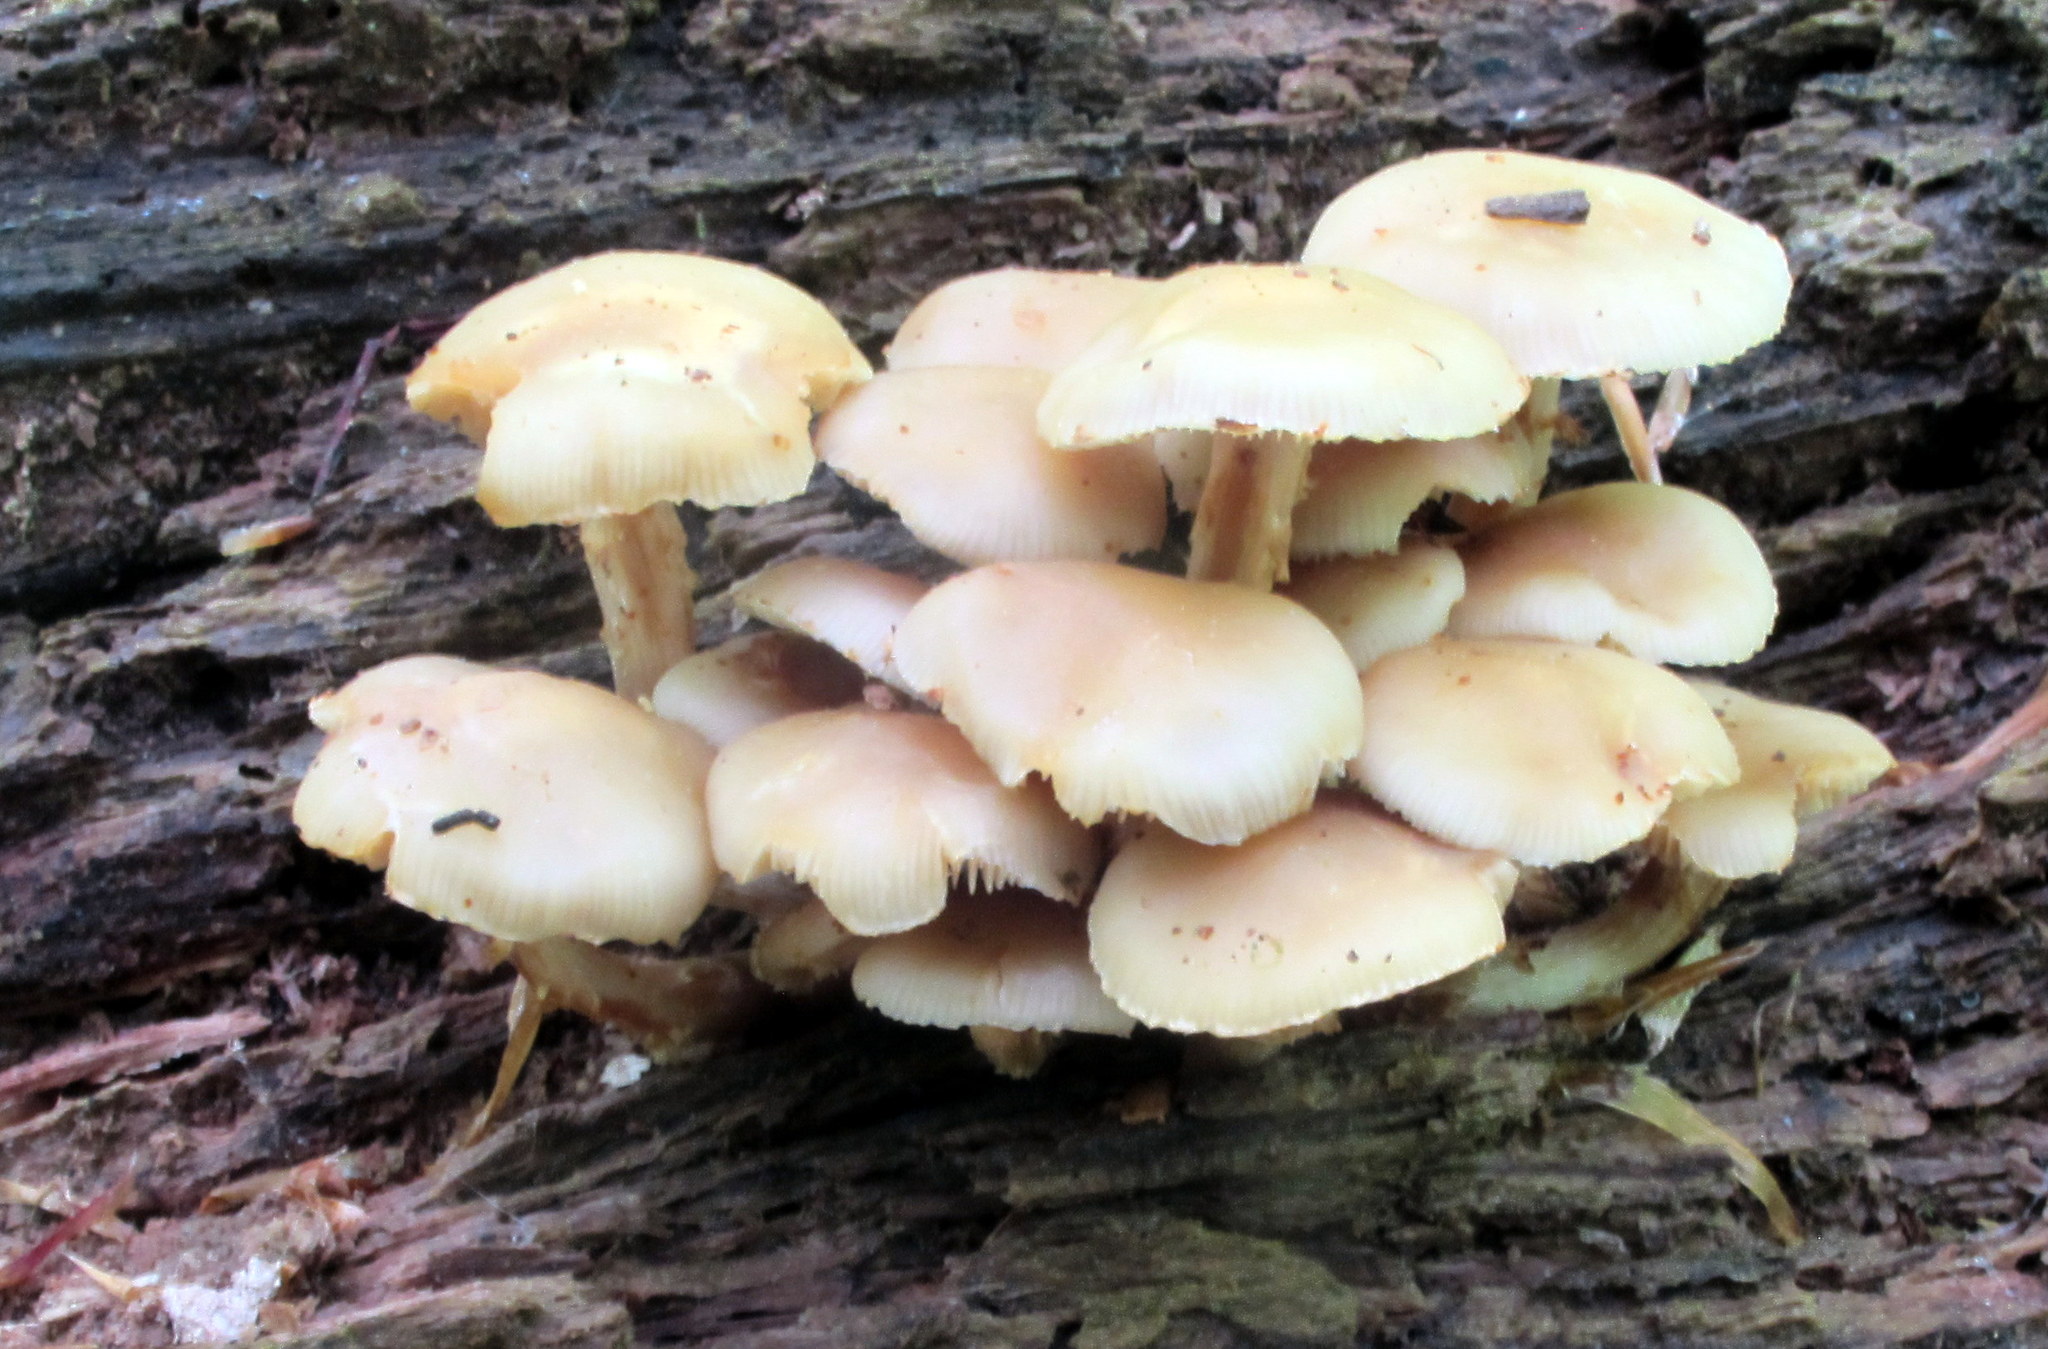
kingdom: Fungi
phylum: Basidiomycota
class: Agaricomycetes
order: Agaricales
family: Strophariaceae
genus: Kuehneromyces
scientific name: Kuehneromyces marginellus
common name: Sheathed woodtuft
